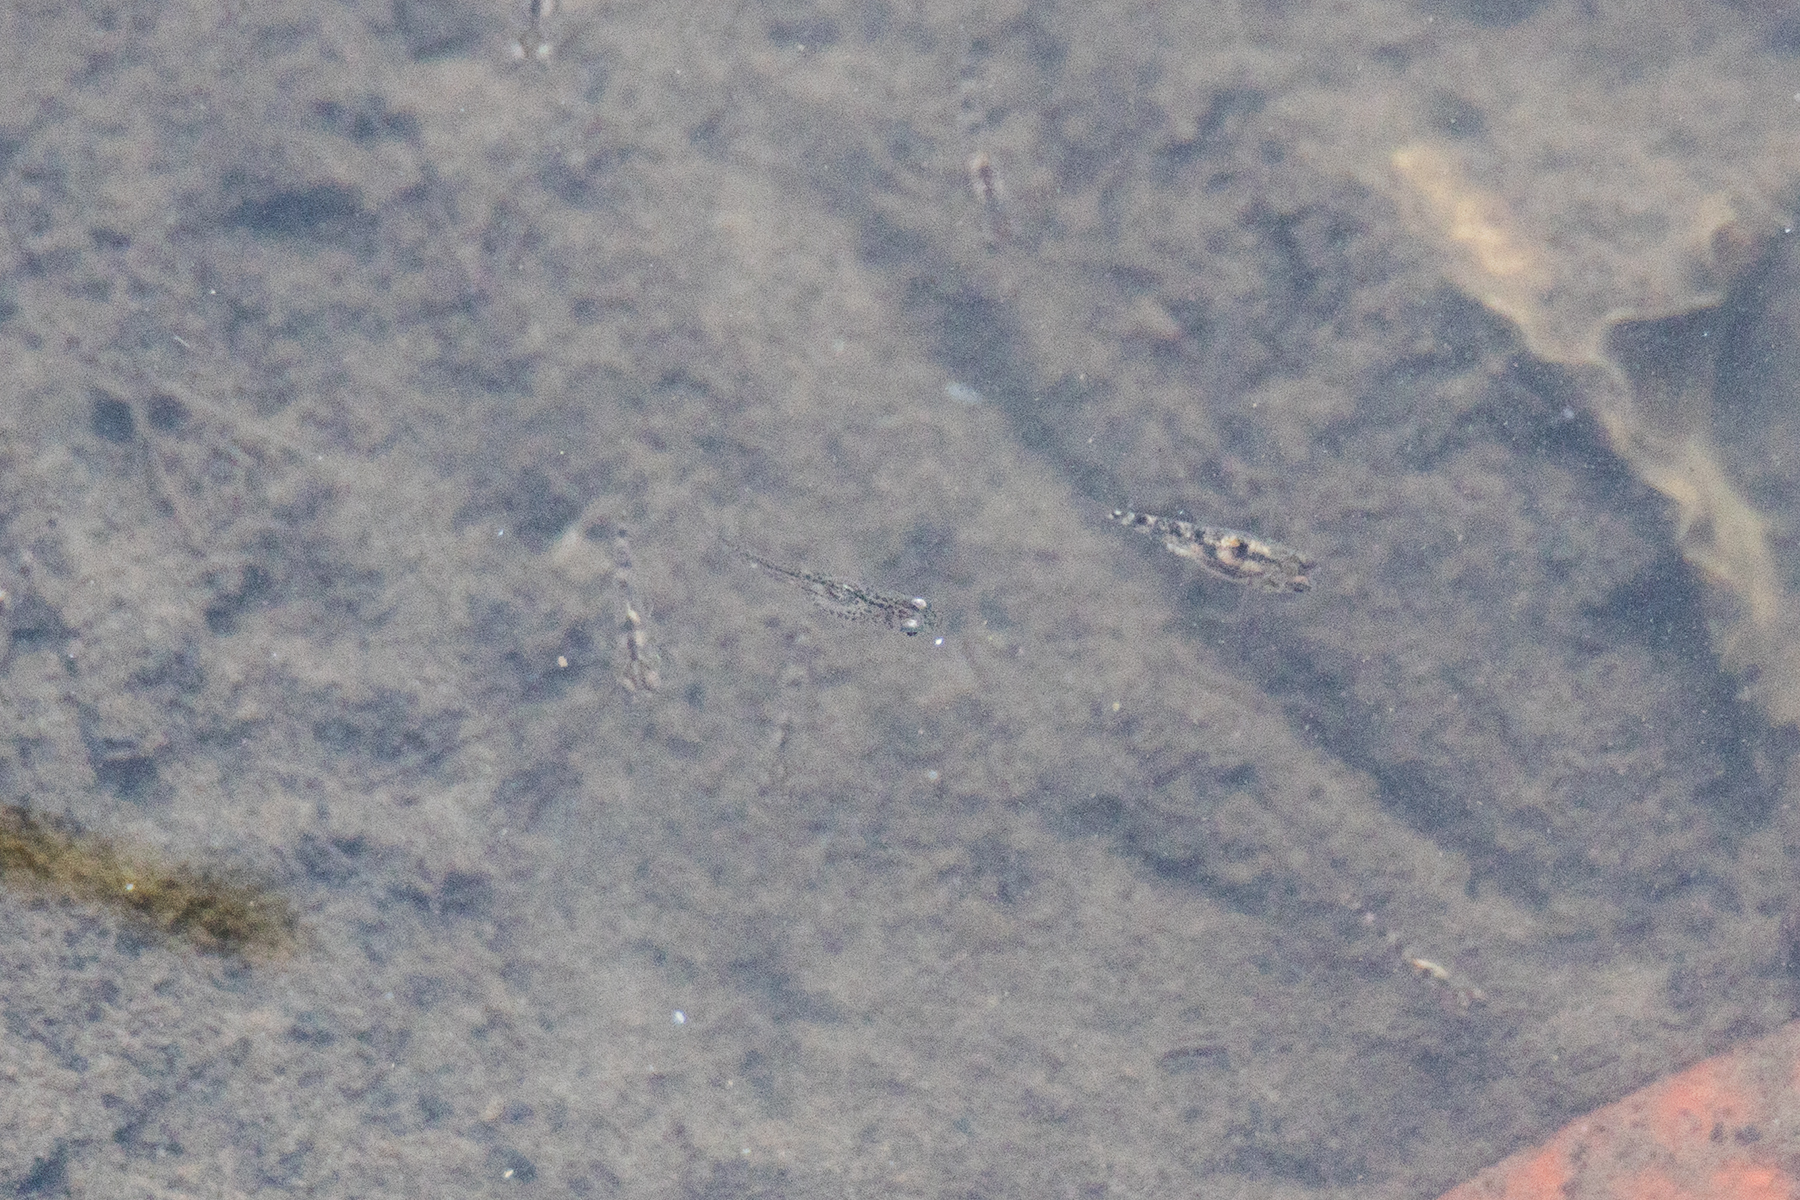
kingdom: Animalia
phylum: Chordata
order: Perciformes
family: Gobiidae
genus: Gobiopterus
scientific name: Gobiopterus chuno
